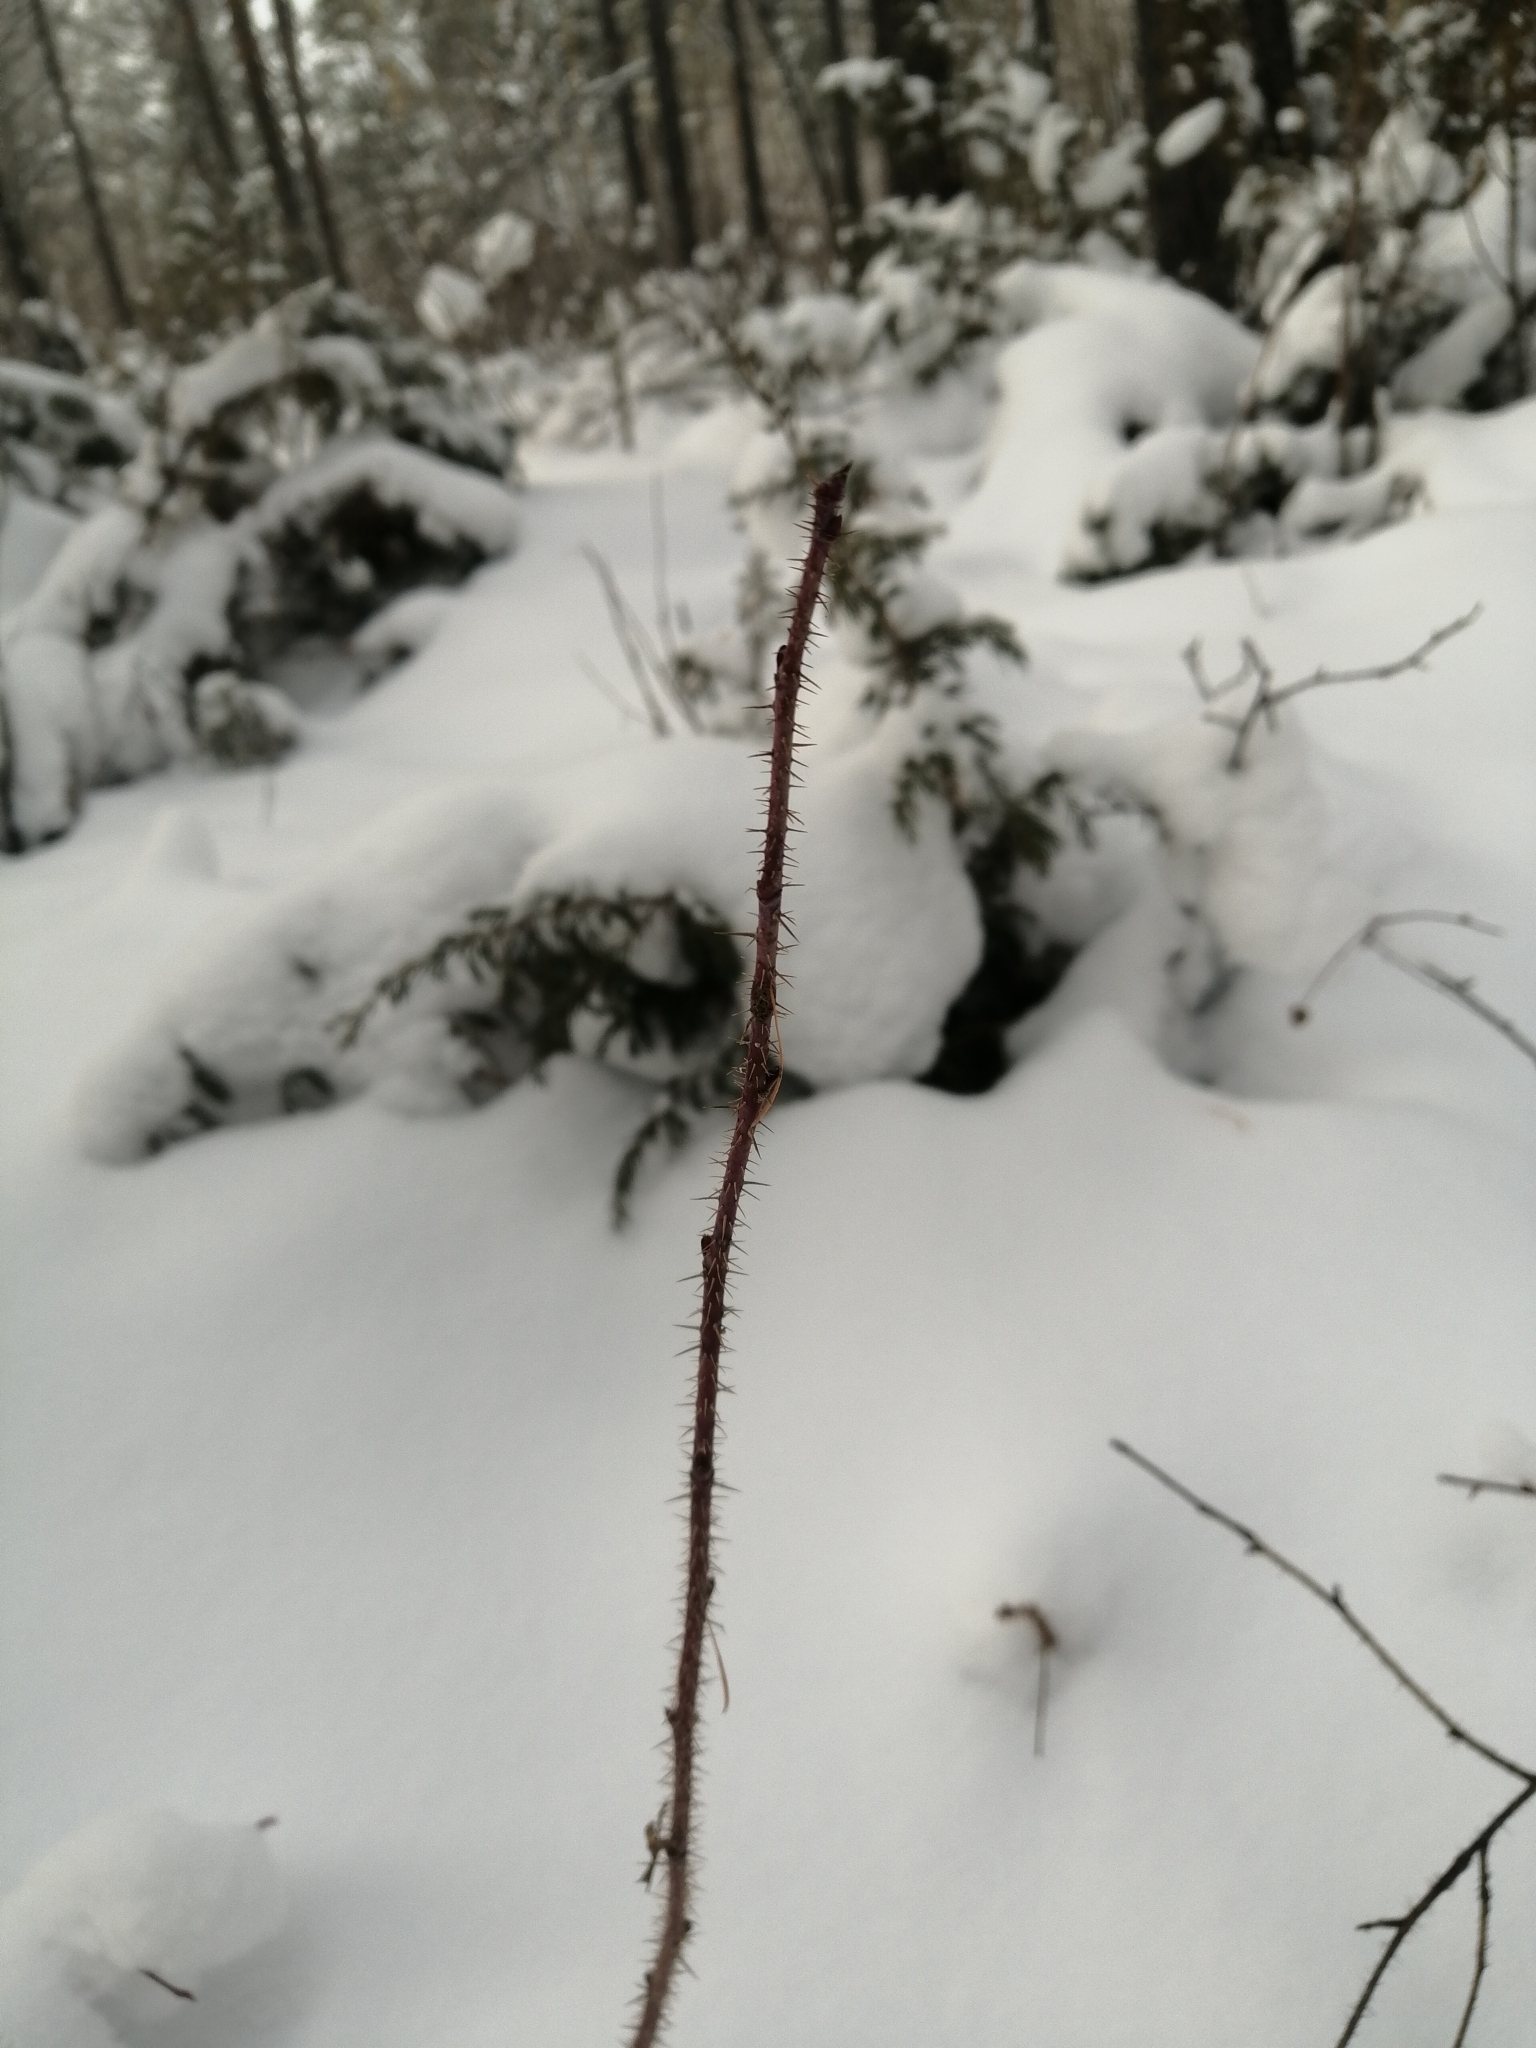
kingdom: Plantae
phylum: Tracheophyta
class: Magnoliopsida
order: Rosales
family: Rosaceae
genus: Rosa
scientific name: Rosa acicularis
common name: Prickly rose
